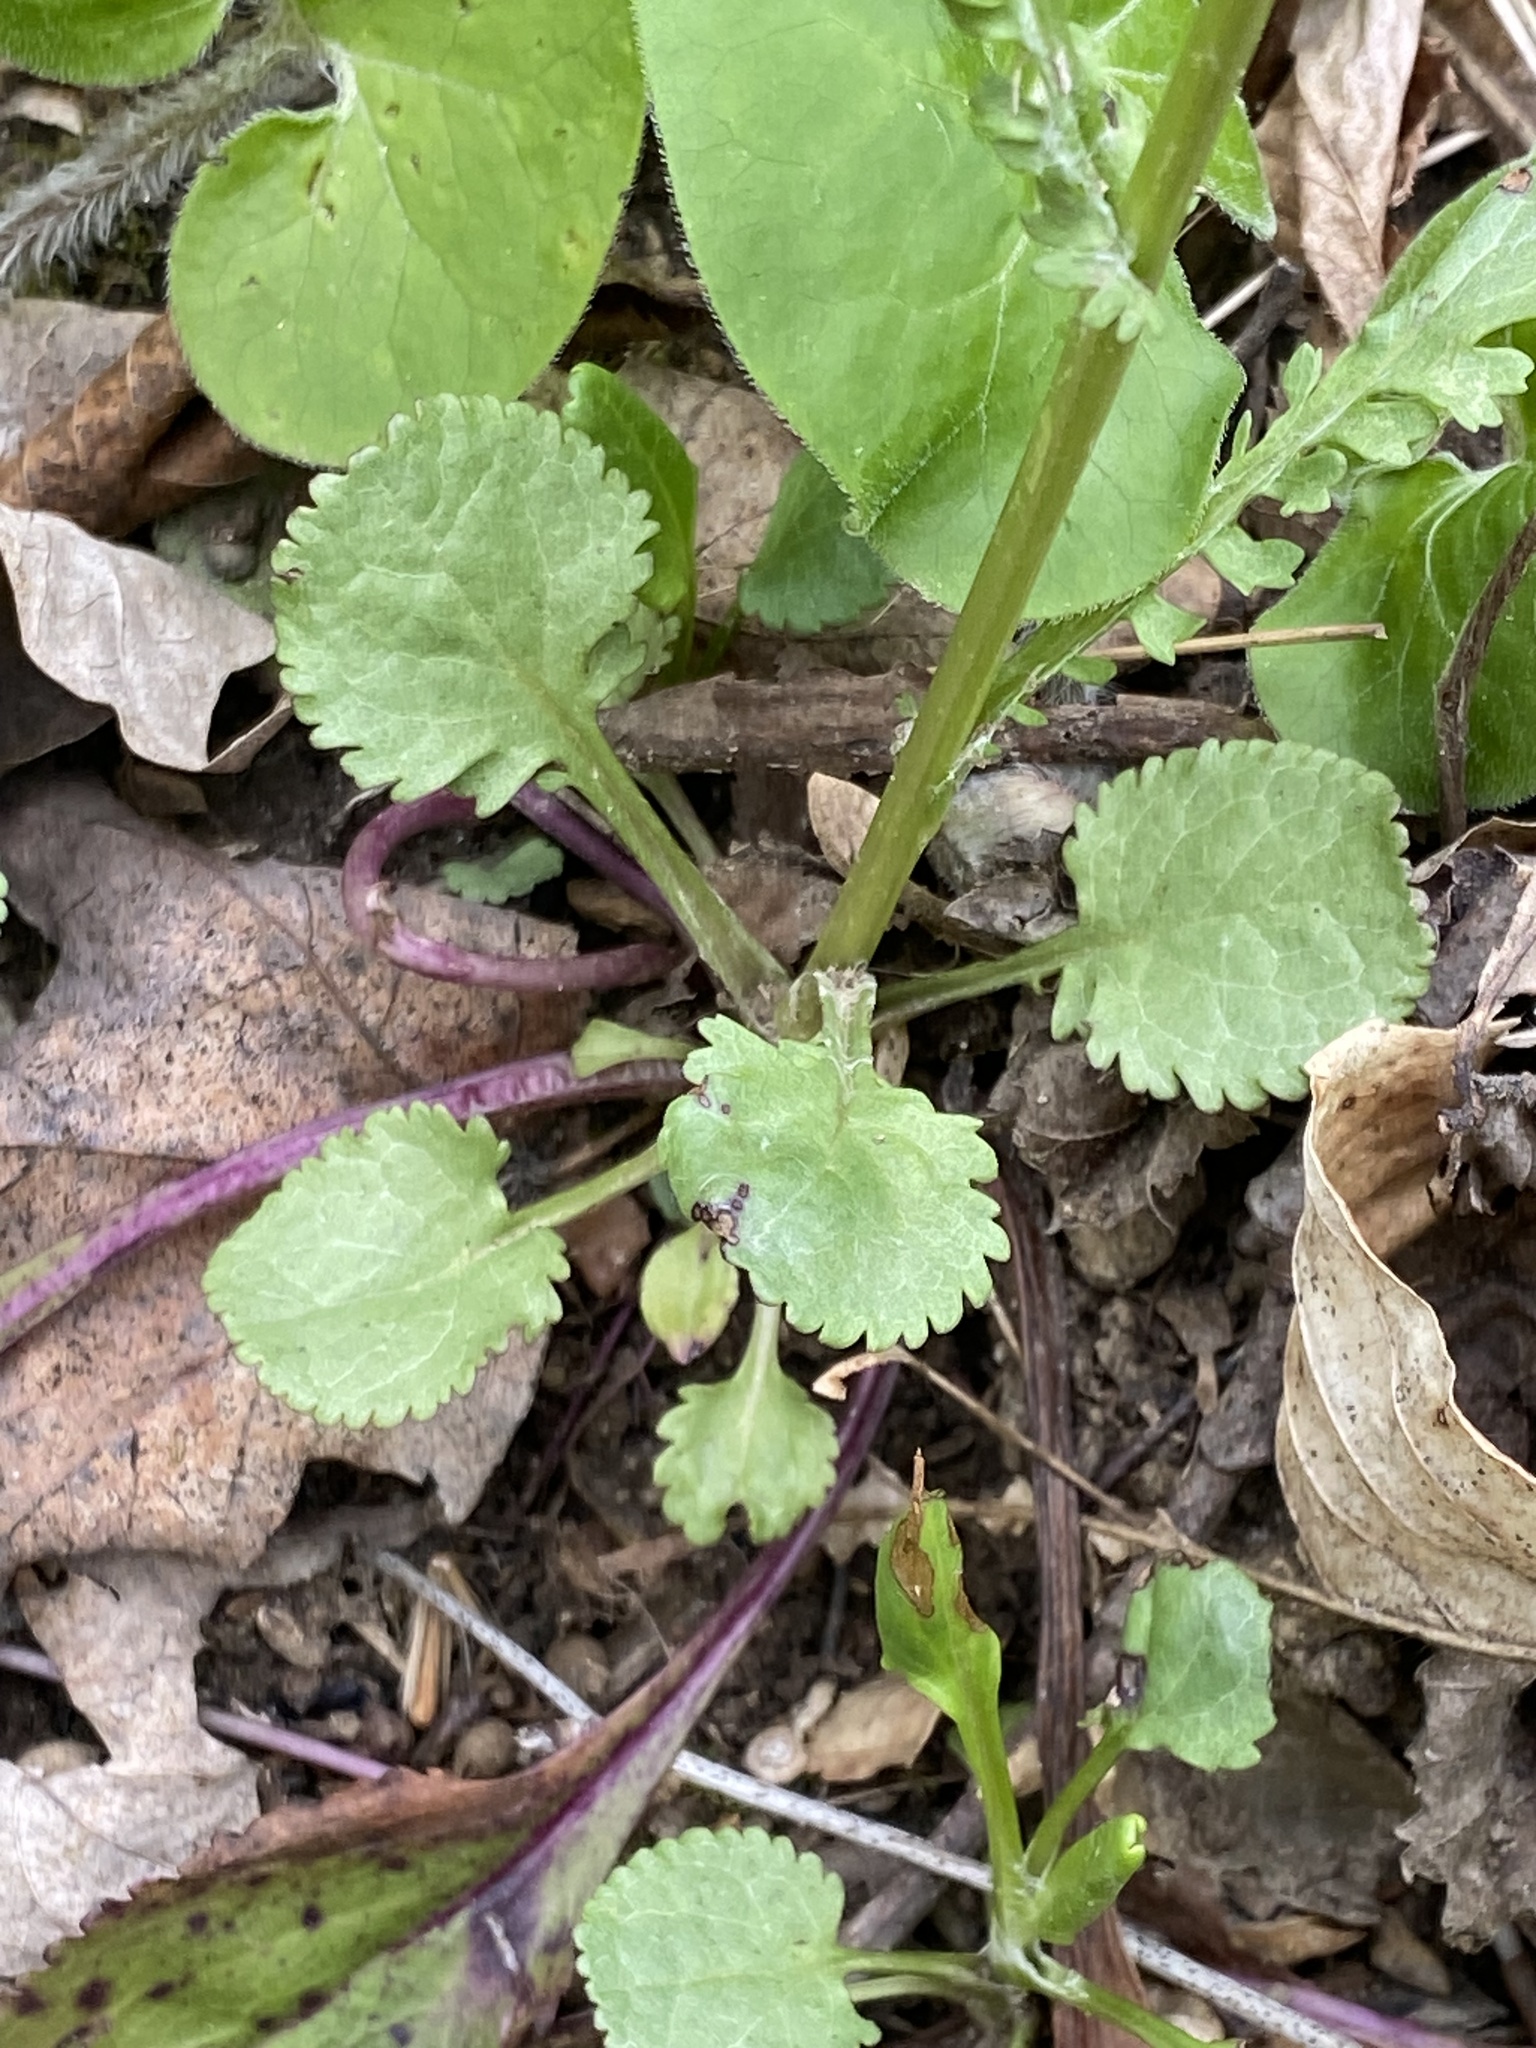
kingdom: Plantae
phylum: Tracheophyta
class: Magnoliopsida
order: Asterales
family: Asteraceae
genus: Packera
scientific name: Packera obovata
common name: Round-leaf ragwort
